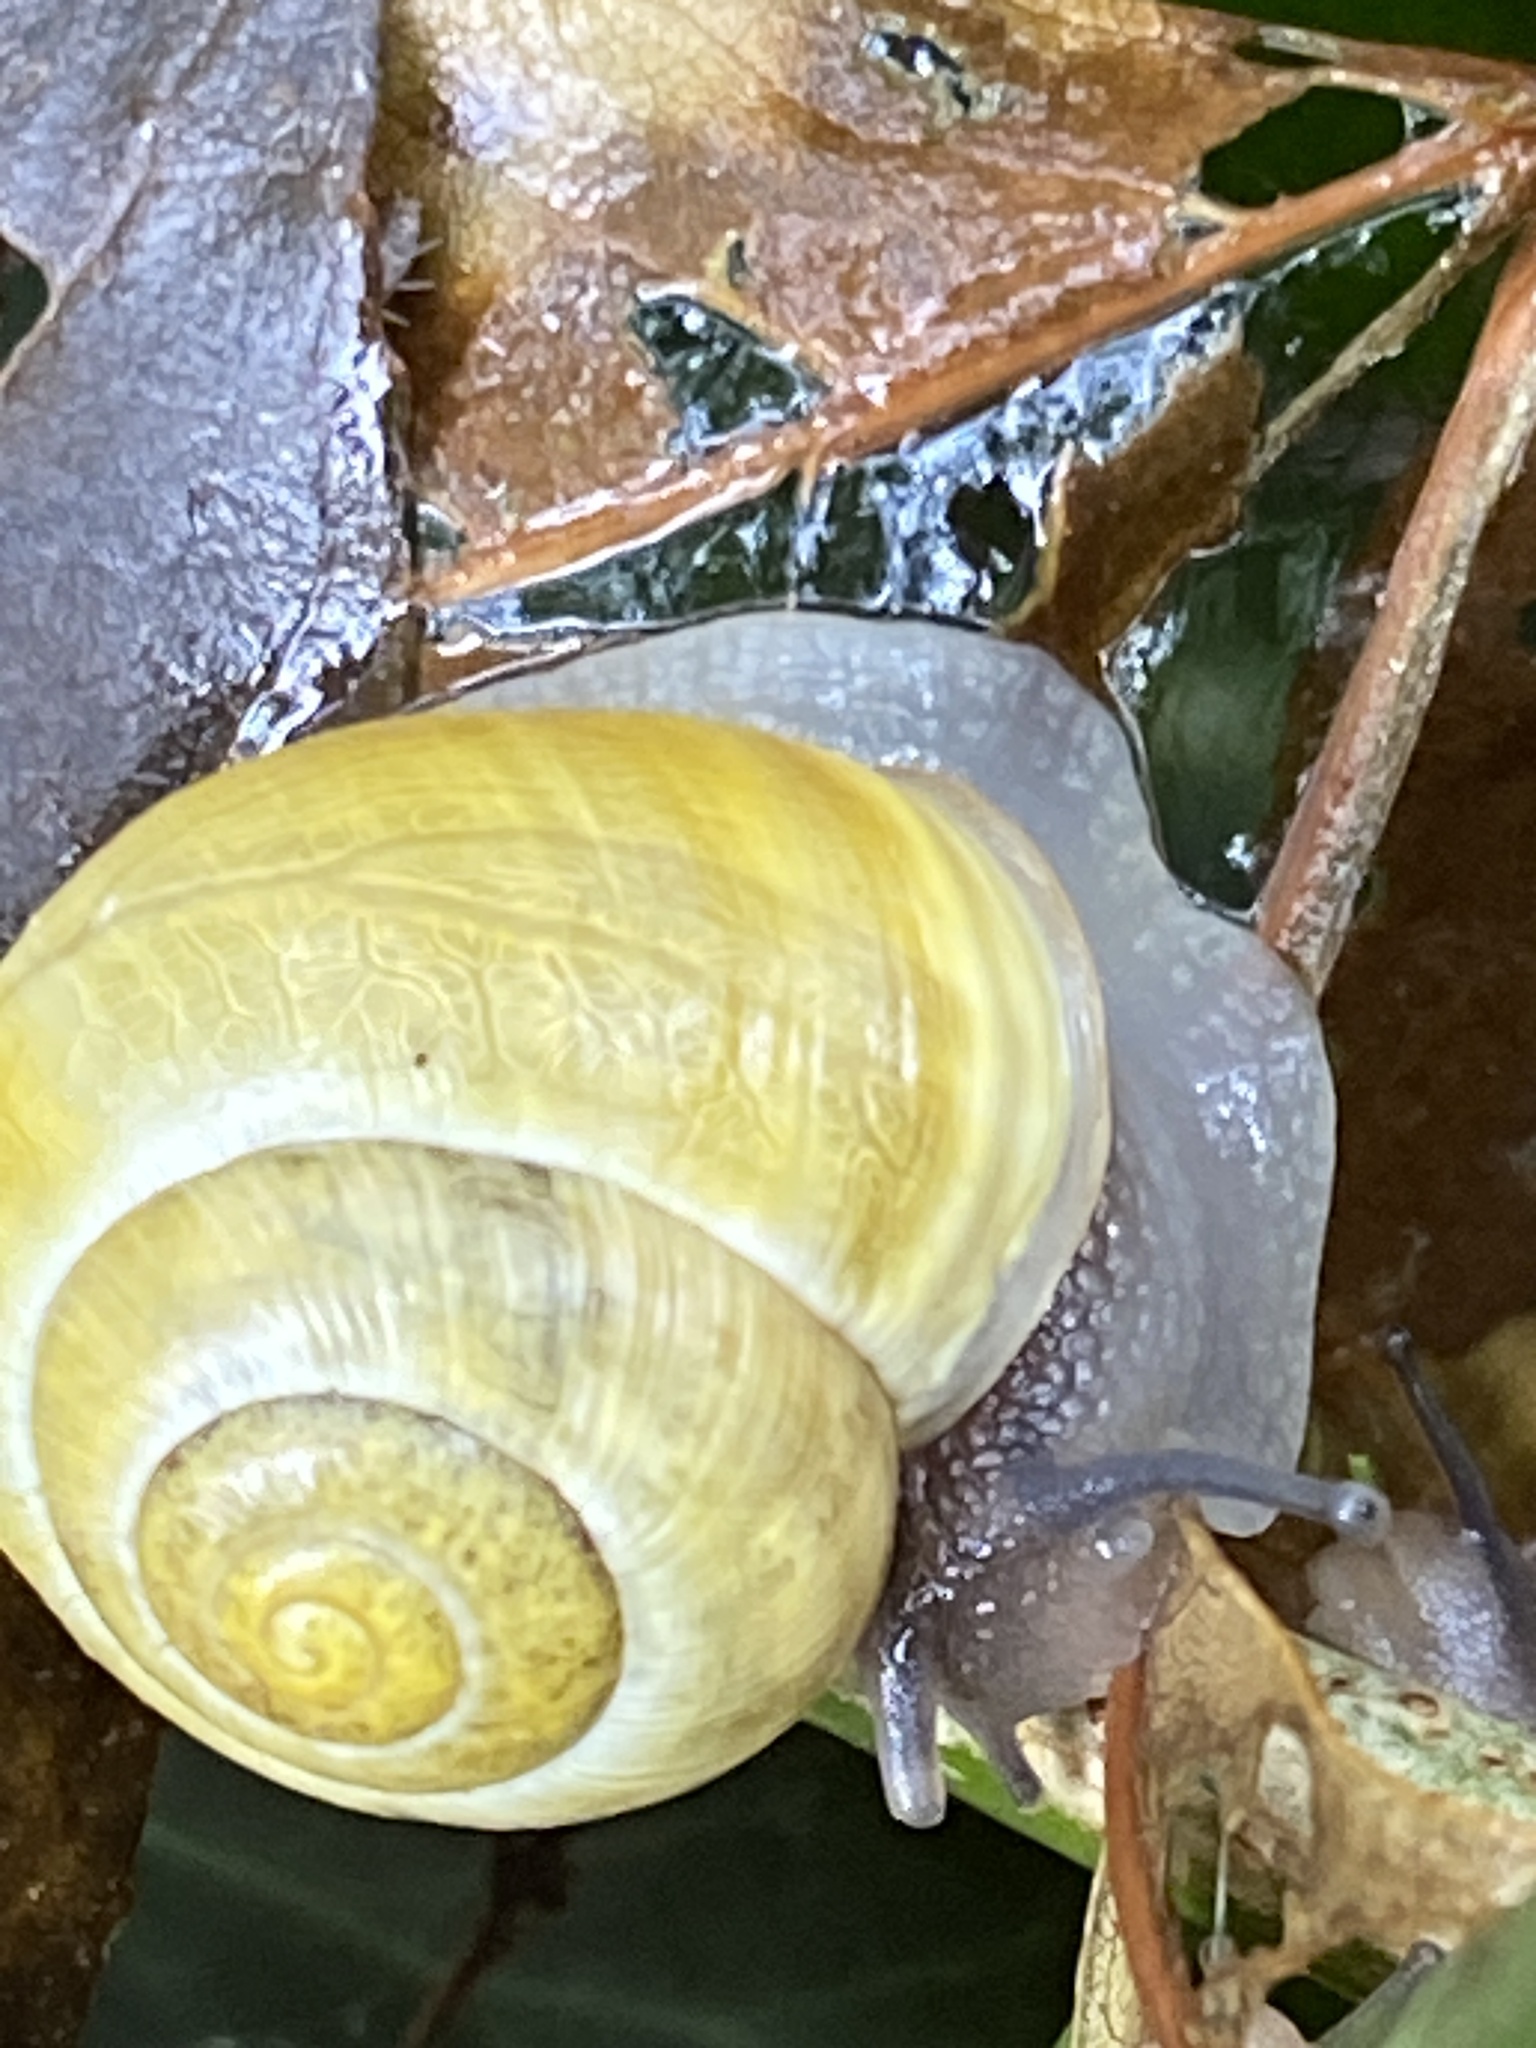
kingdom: Animalia
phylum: Mollusca
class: Gastropoda
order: Stylommatophora
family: Helicidae
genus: Cepaea
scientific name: Cepaea hortensis
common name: White-lip gardensnail
